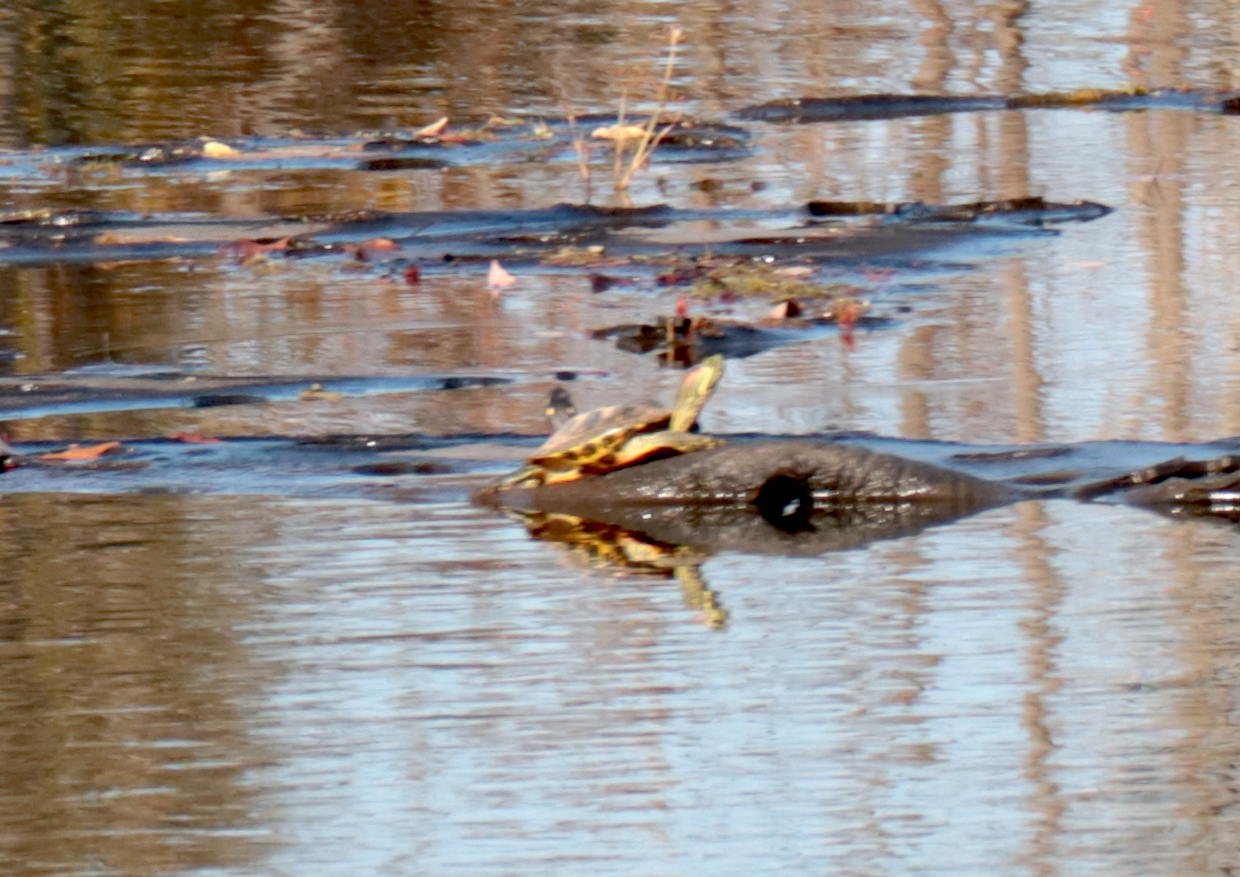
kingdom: Animalia
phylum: Chordata
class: Testudines
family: Emydidae
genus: Trachemys
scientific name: Trachemys scripta
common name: Slider
